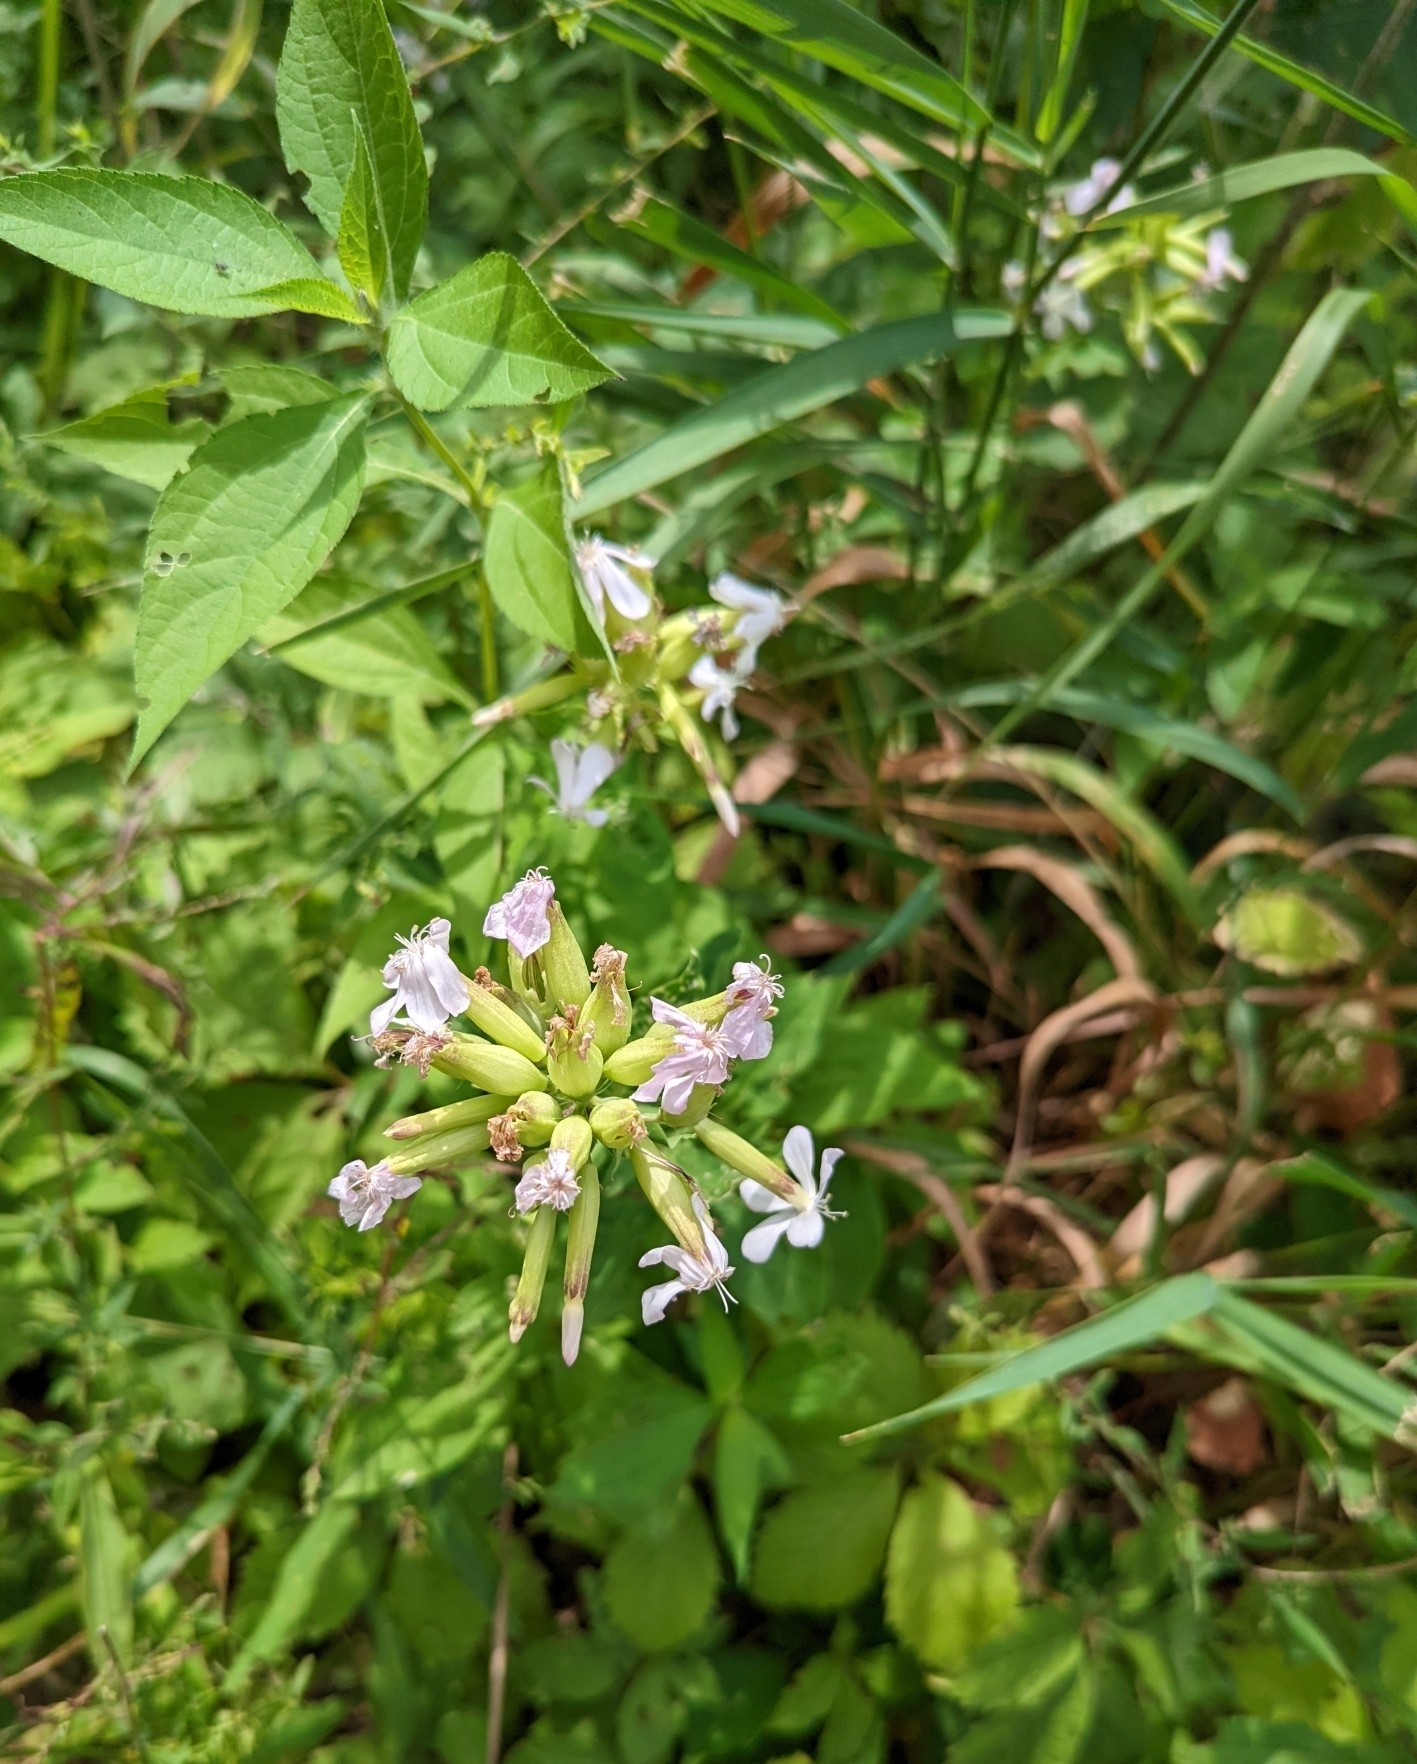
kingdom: Plantae
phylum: Tracheophyta
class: Magnoliopsida
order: Caryophyllales
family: Caryophyllaceae
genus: Saponaria
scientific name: Saponaria officinalis
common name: Soapwort
